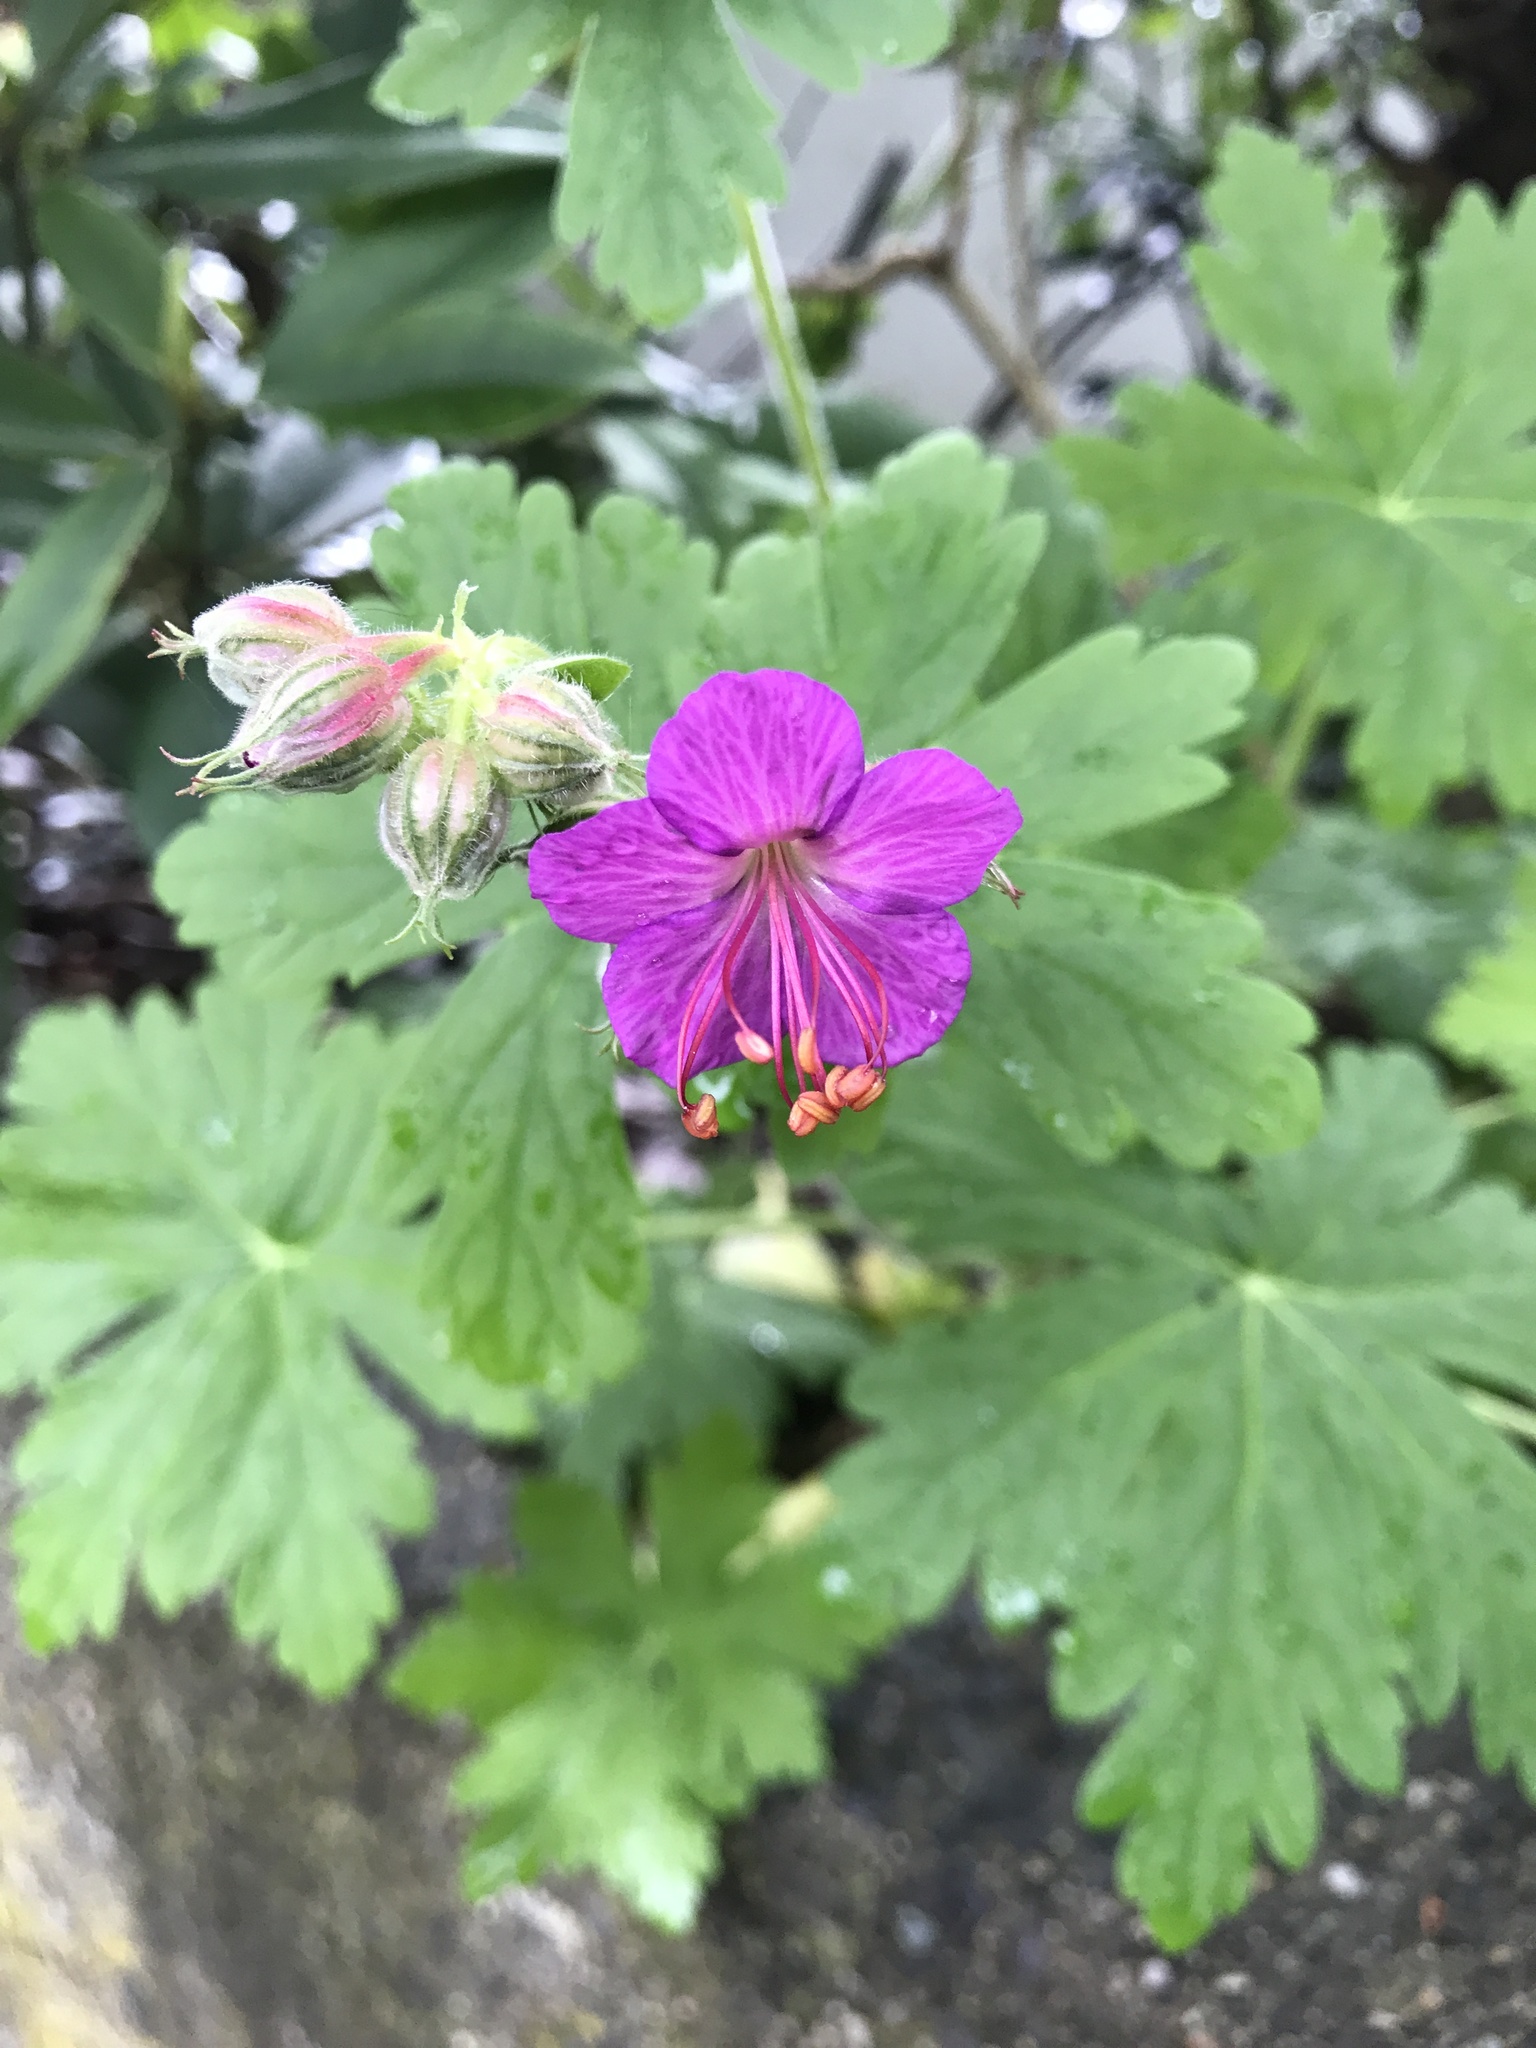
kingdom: Plantae
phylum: Tracheophyta
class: Magnoliopsida
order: Geraniales
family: Geraniaceae
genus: Geranium
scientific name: Geranium macrorrhizum
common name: Rock crane's-bill
